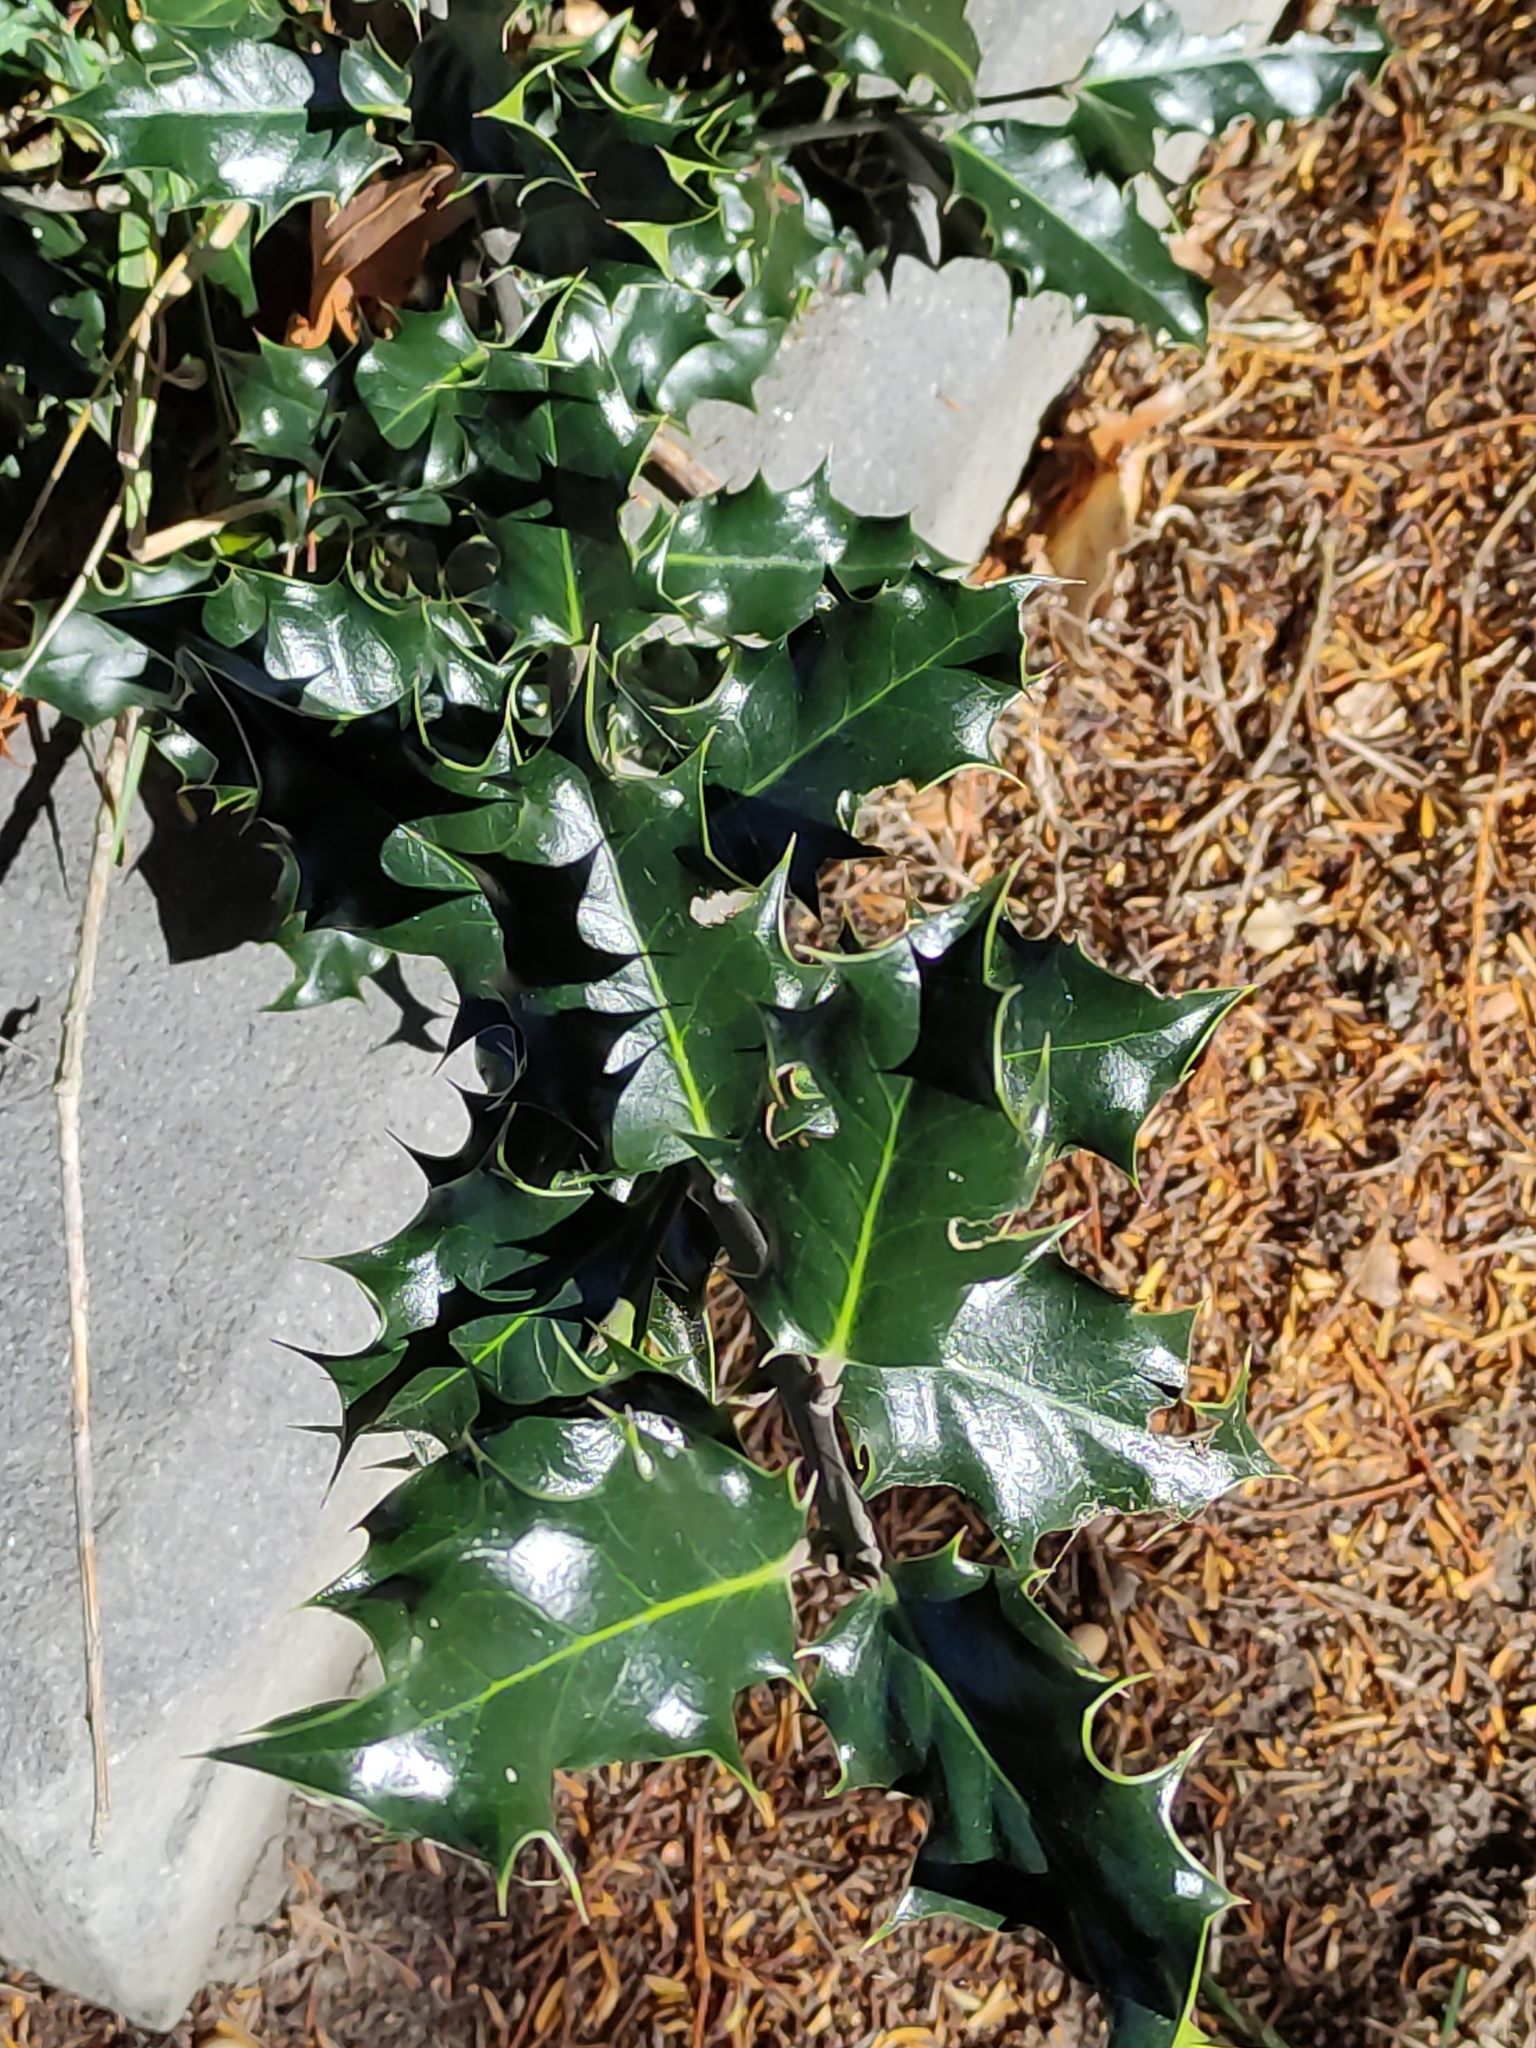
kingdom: Plantae
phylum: Tracheophyta
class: Magnoliopsida
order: Aquifoliales
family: Aquifoliaceae
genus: Ilex
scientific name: Ilex aquifolium
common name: English holly
